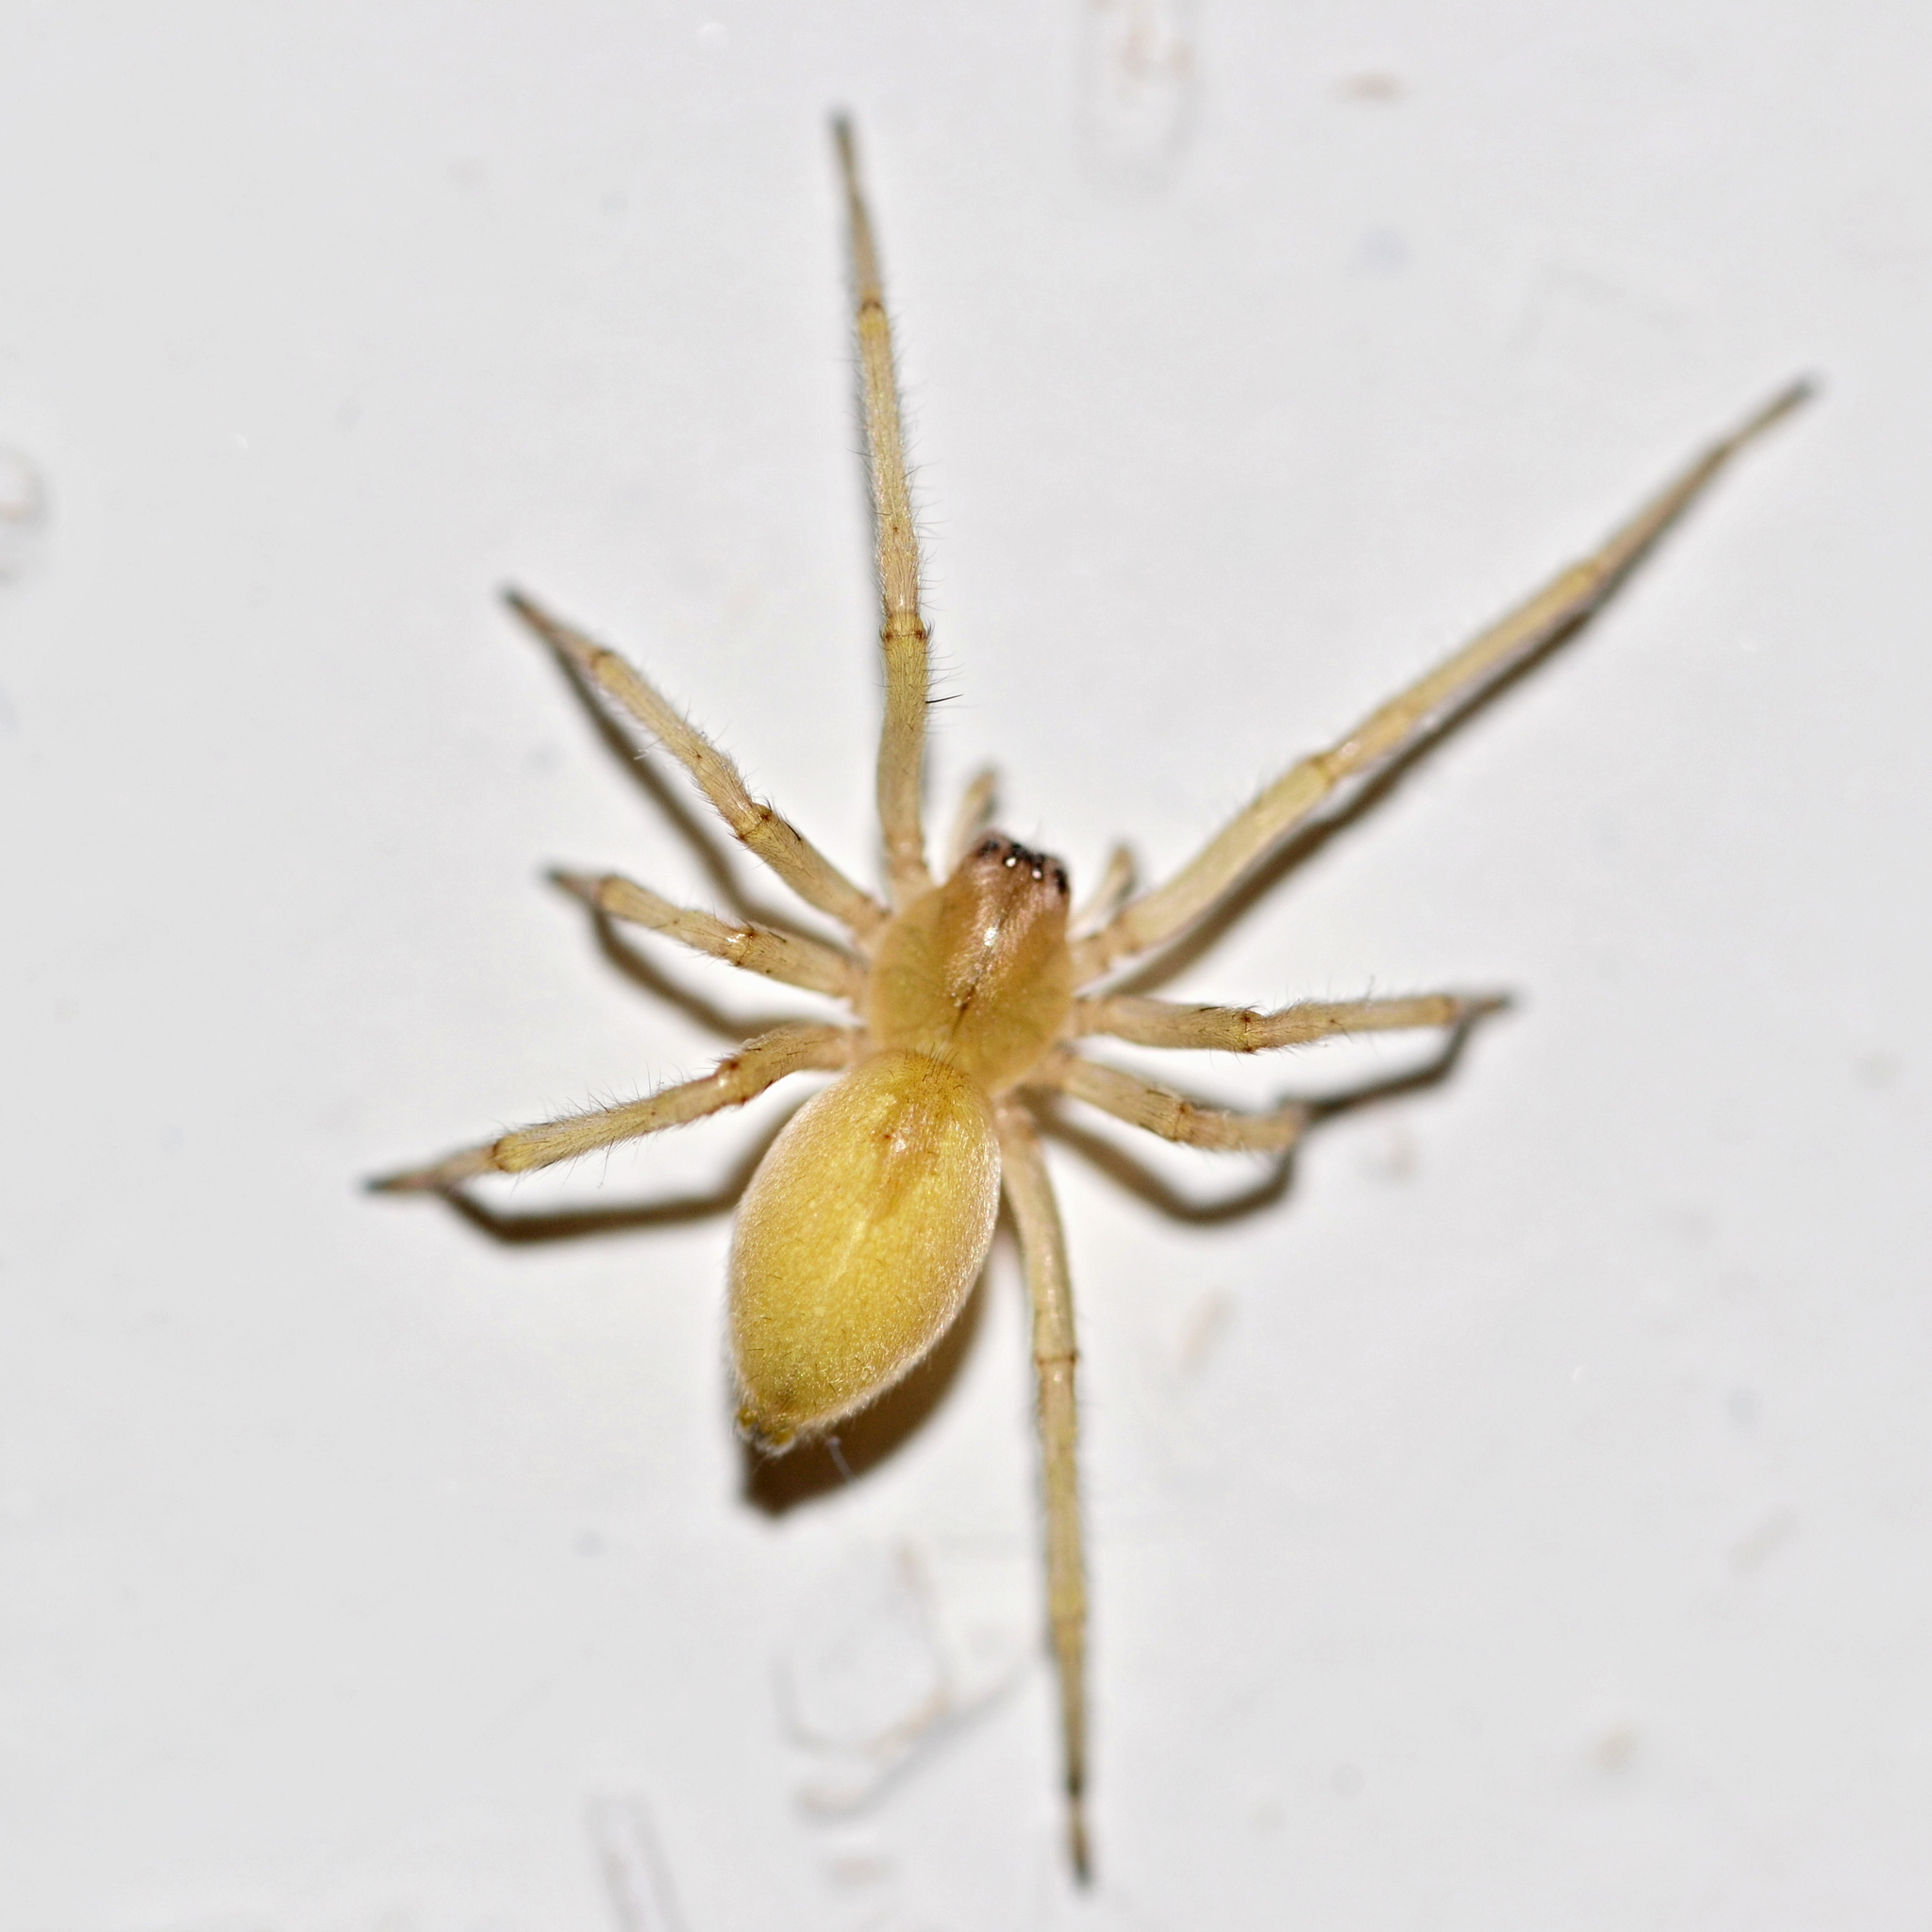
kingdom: Animalia
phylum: Arthropoda
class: Arachnida
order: Araneae
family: Cheiracanthiidae
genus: Cheiracanthium
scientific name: Cheiracanthium mildei
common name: Northern yellow sac spider
